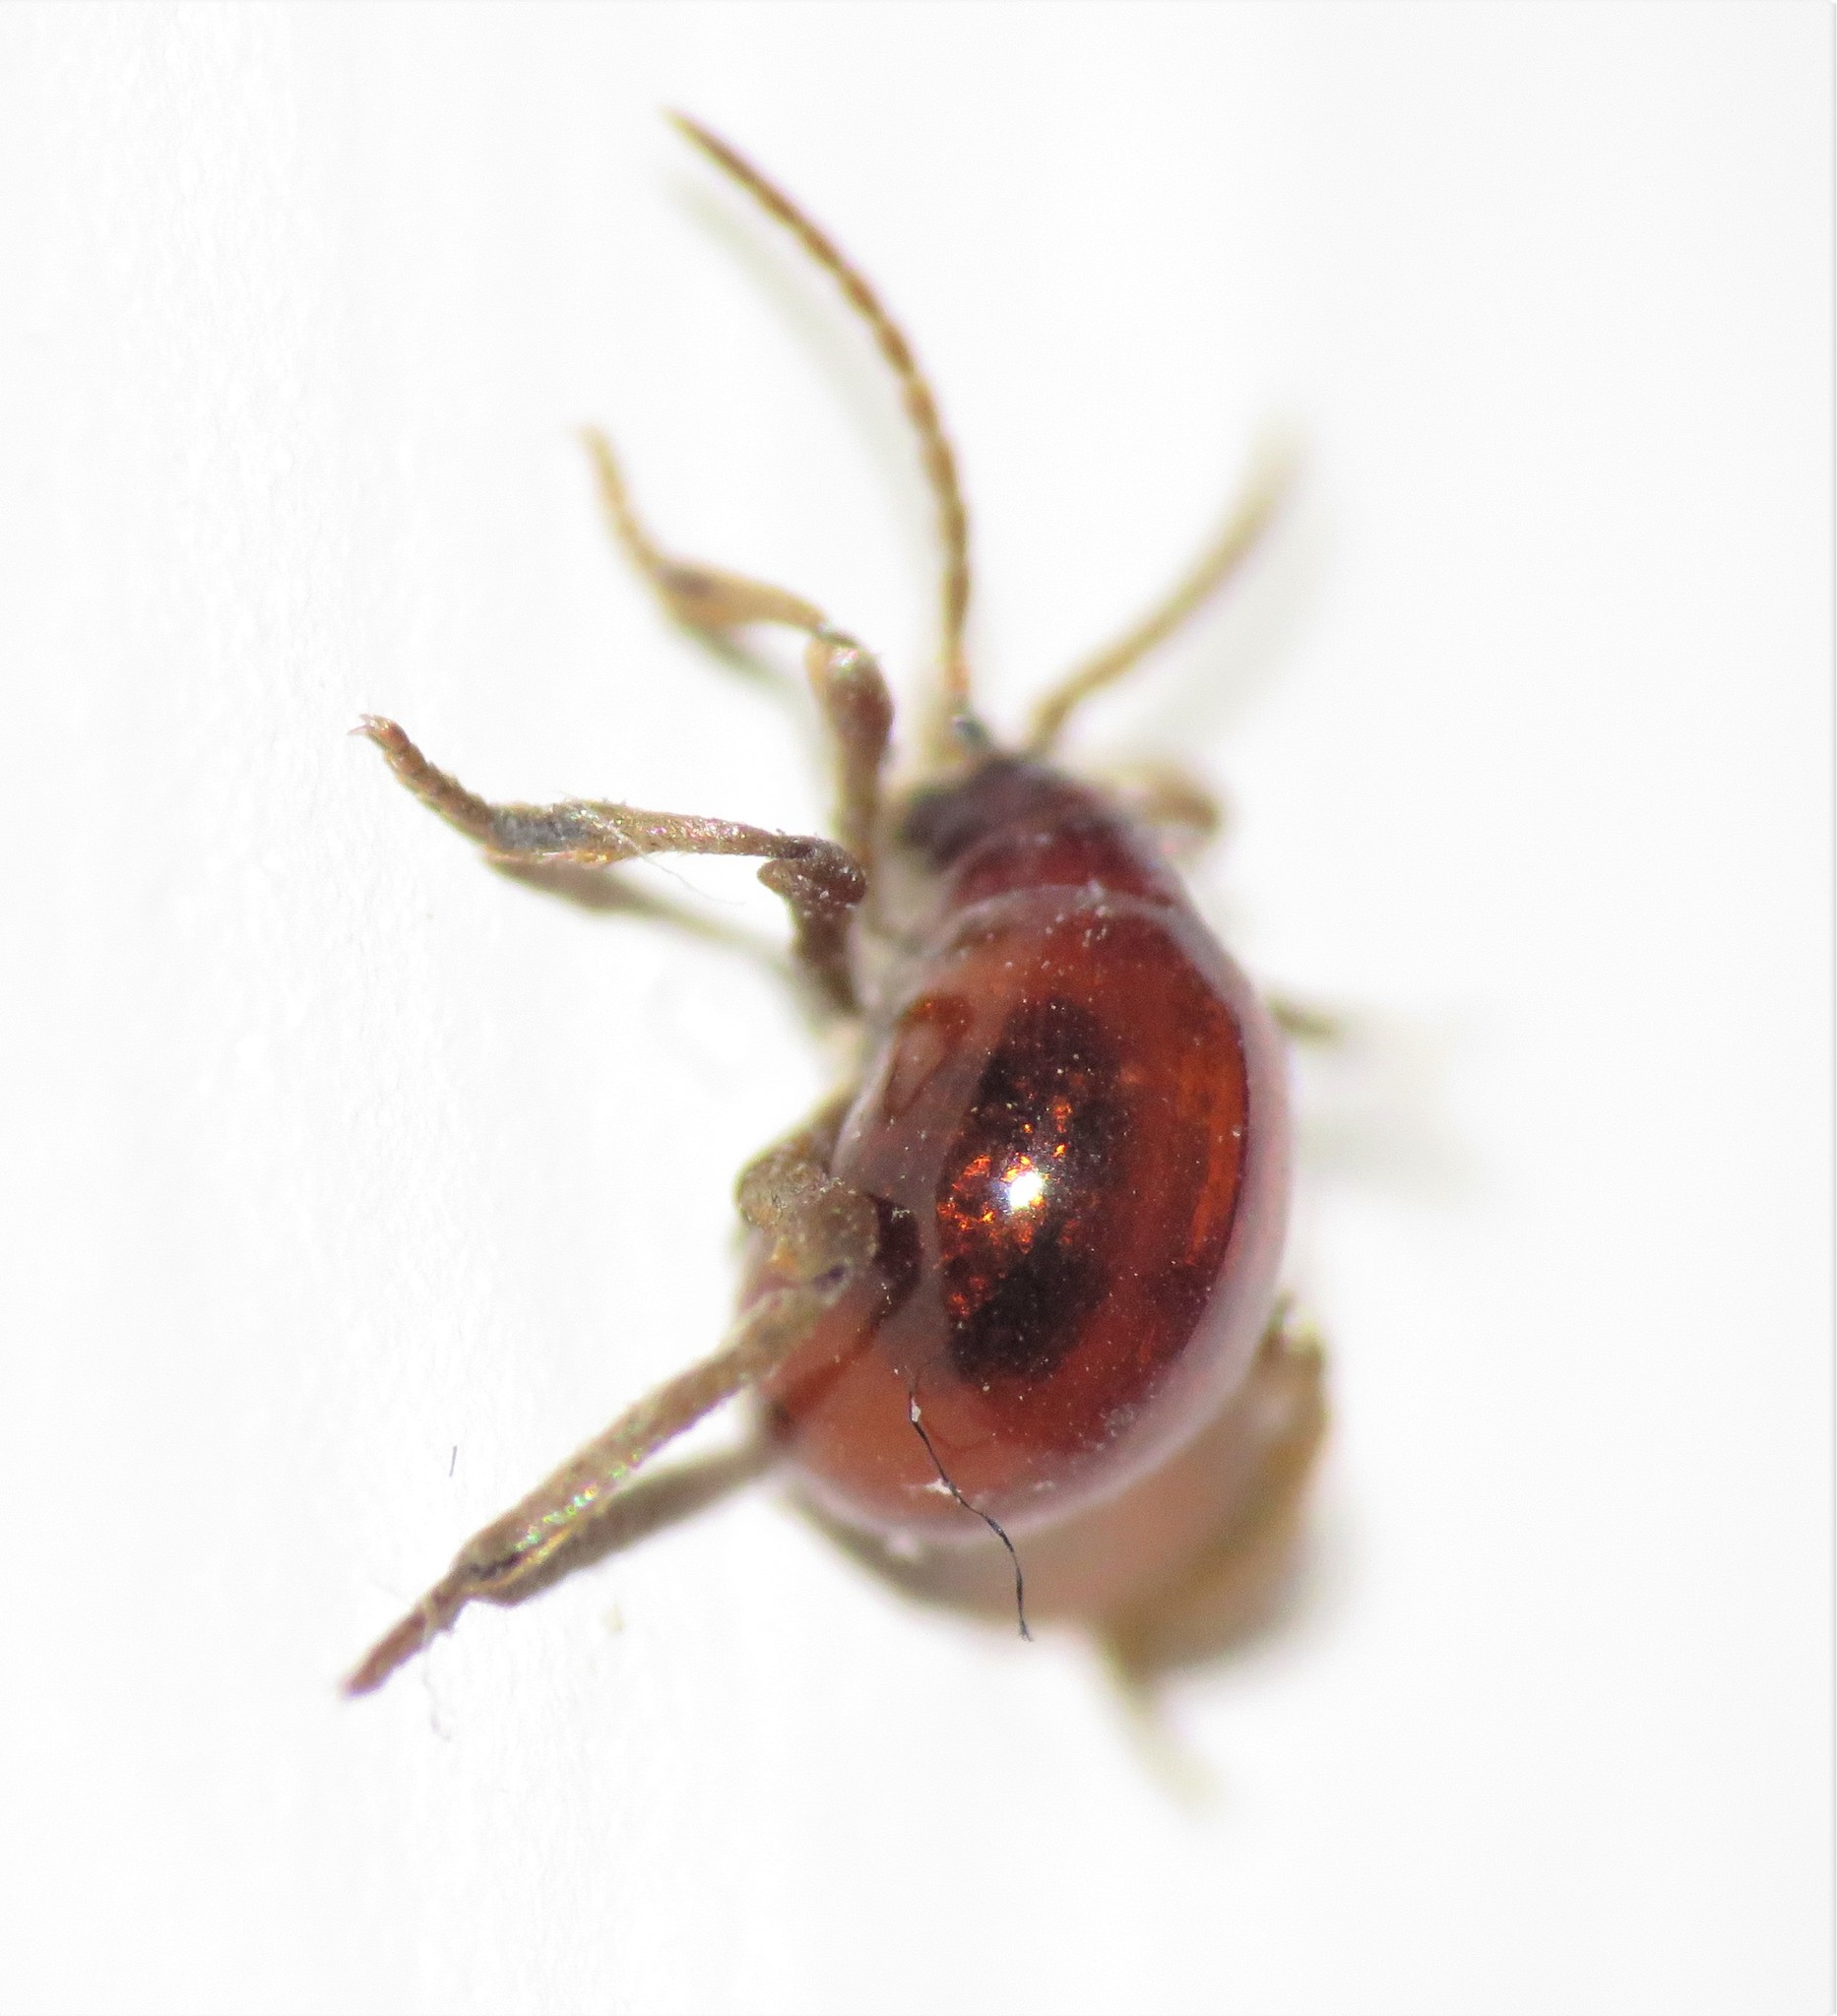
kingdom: Animalia
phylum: Arthropoda
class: Insecta
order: Coleoptera
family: Ptinidae
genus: Gibbium
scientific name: Gibbium aequinoctiale
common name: Smooth spider beetle
